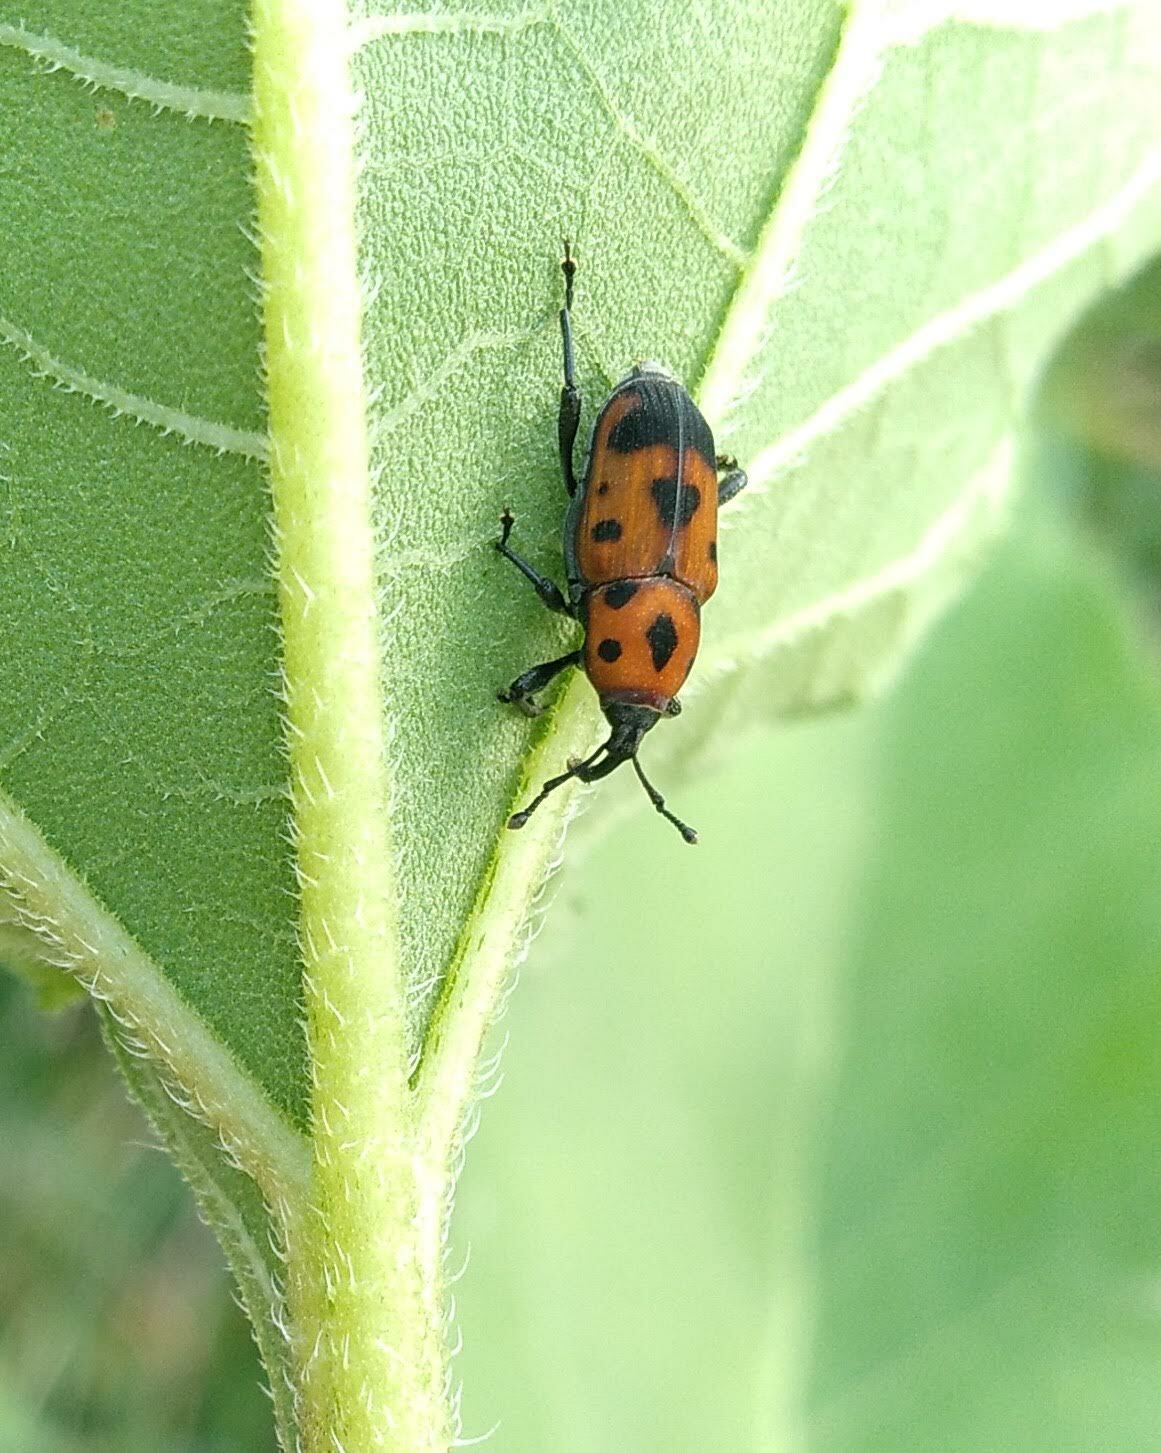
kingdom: Animalia
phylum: Arthropoda
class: Insecta
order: Coleoptera
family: Dryophthoridae
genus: Rhodobaenus
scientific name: Rhodobaenus quinquepunctatus
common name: Cocklebur weevil
